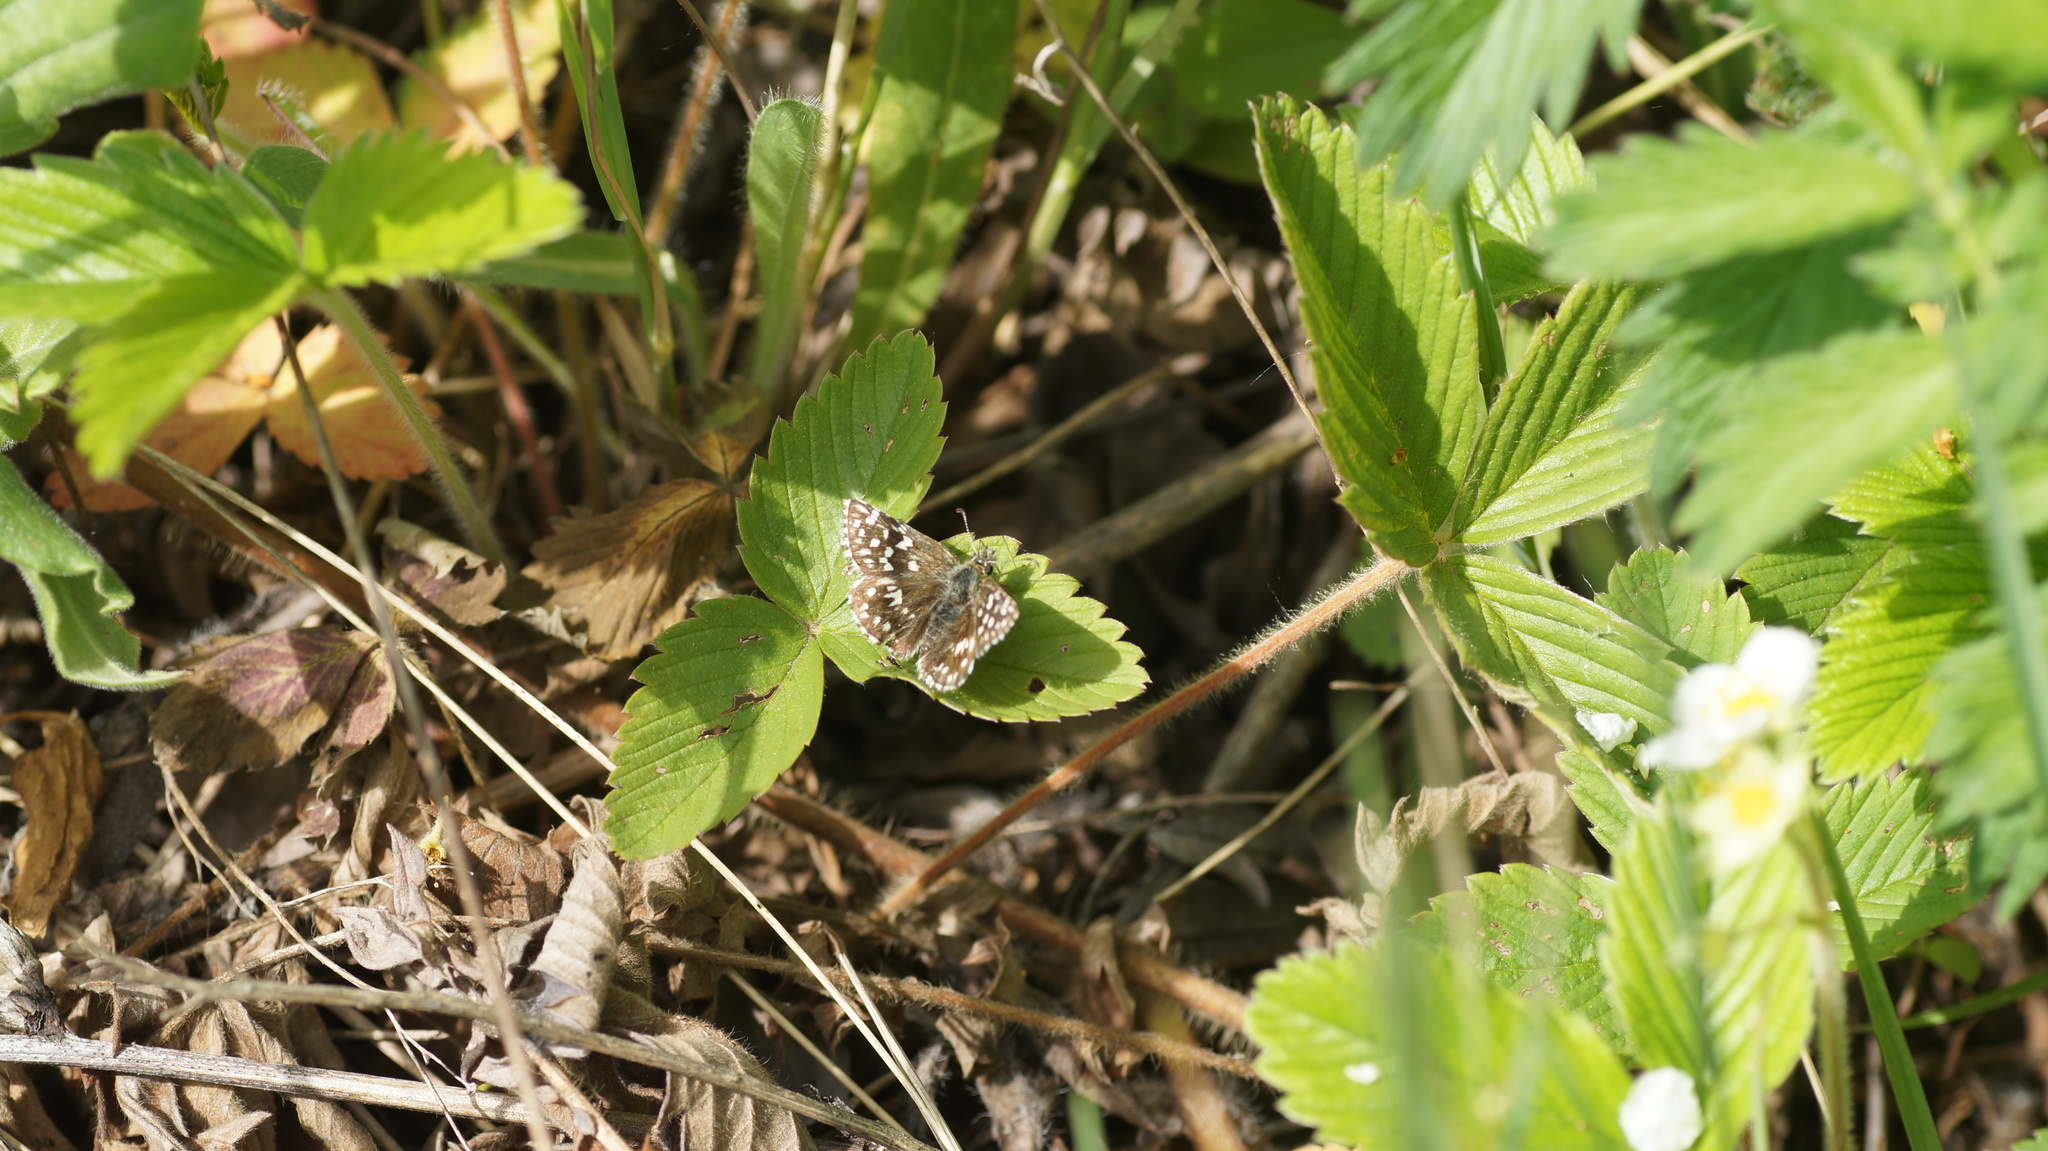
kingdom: Animalia
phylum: Arthropoda
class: Insecta
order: Lepidoptera
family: Hesperiidae
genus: Pyrgus
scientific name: Pyrgus malvae
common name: Grizzled skipper
